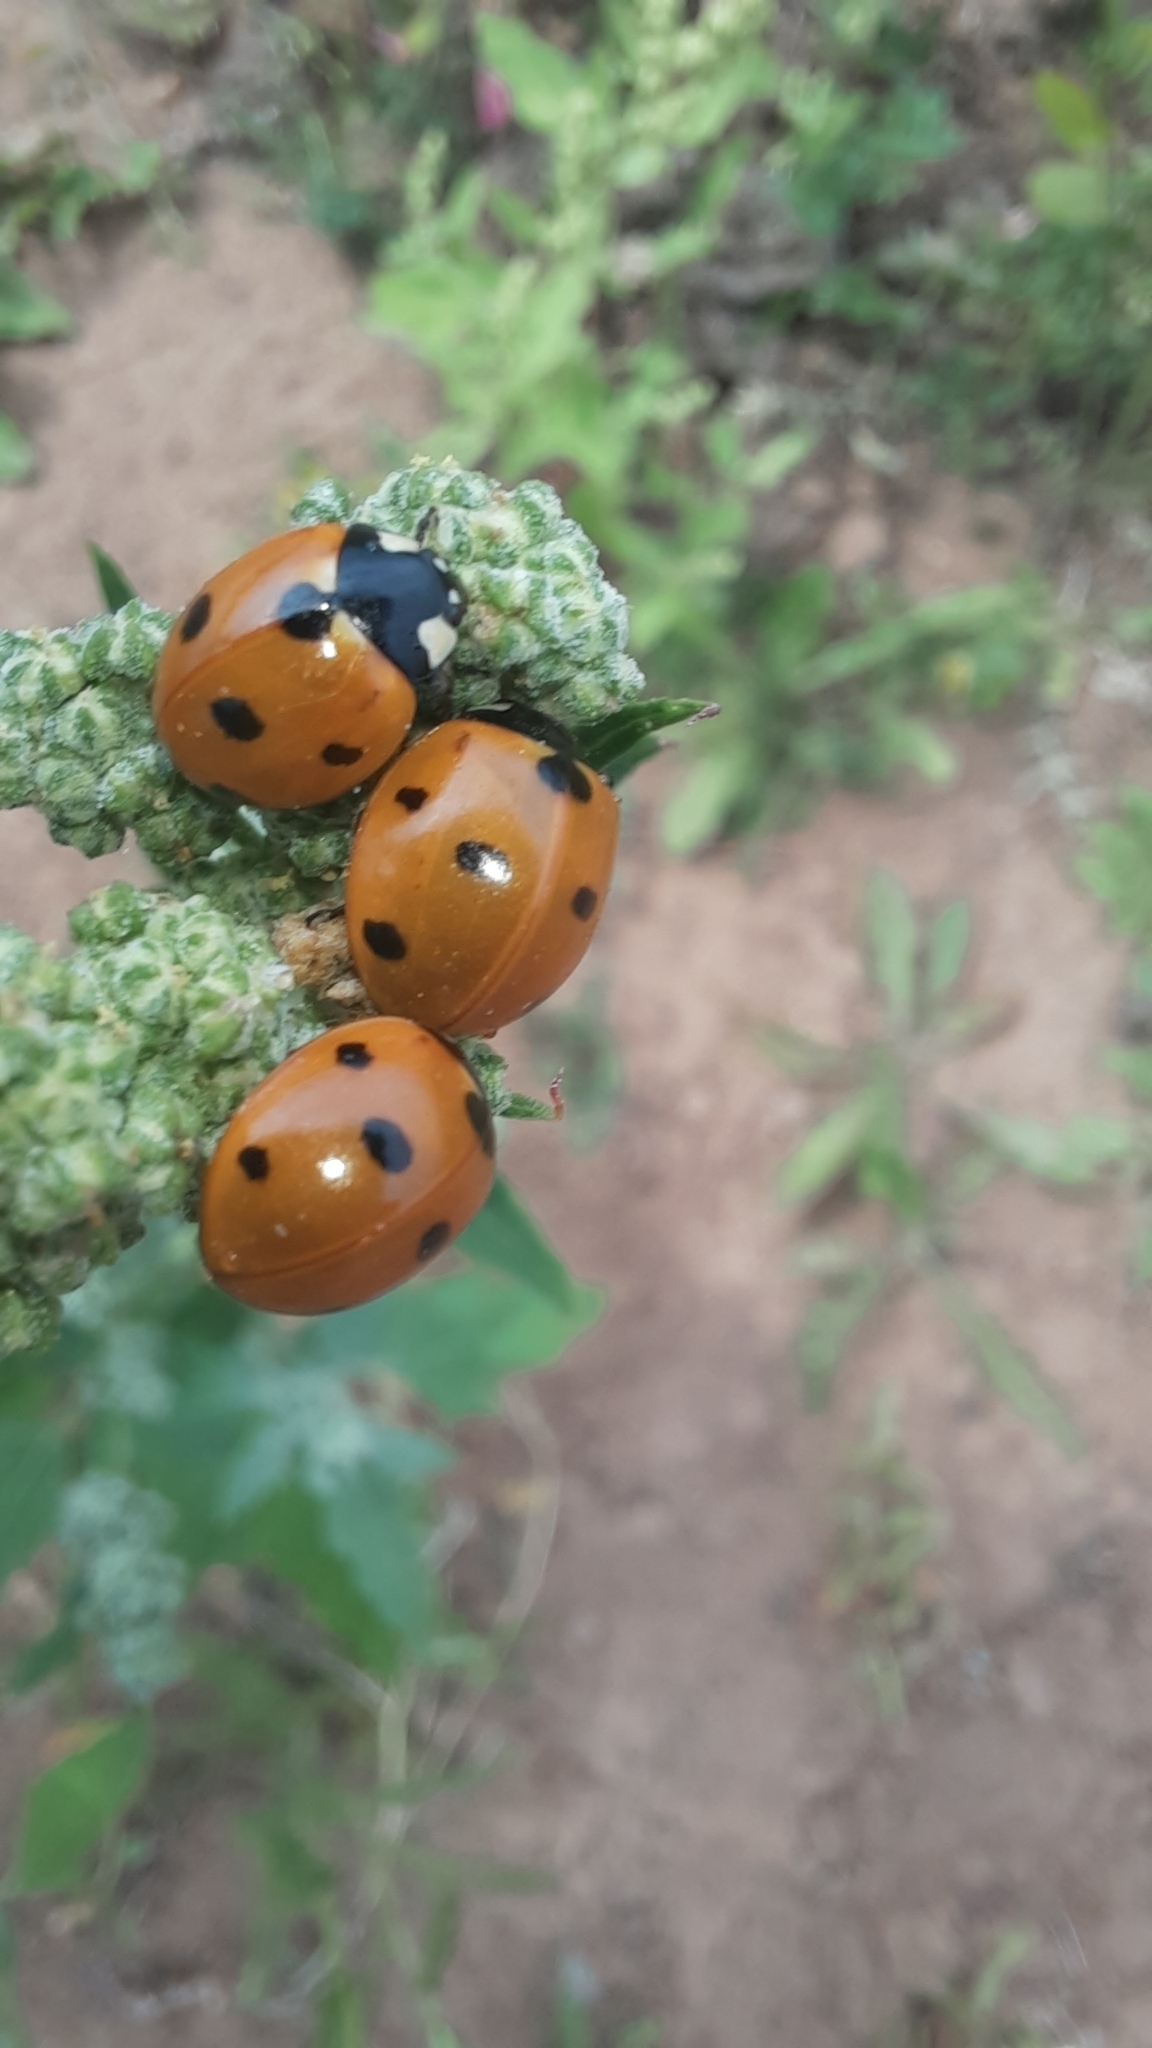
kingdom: Animalia
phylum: Arthropoda
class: Insecta
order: Coleoptera
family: Coccinellidae
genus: Coccinella
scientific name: Coccinella septempunctata
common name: Sevenspotted lady beetle
